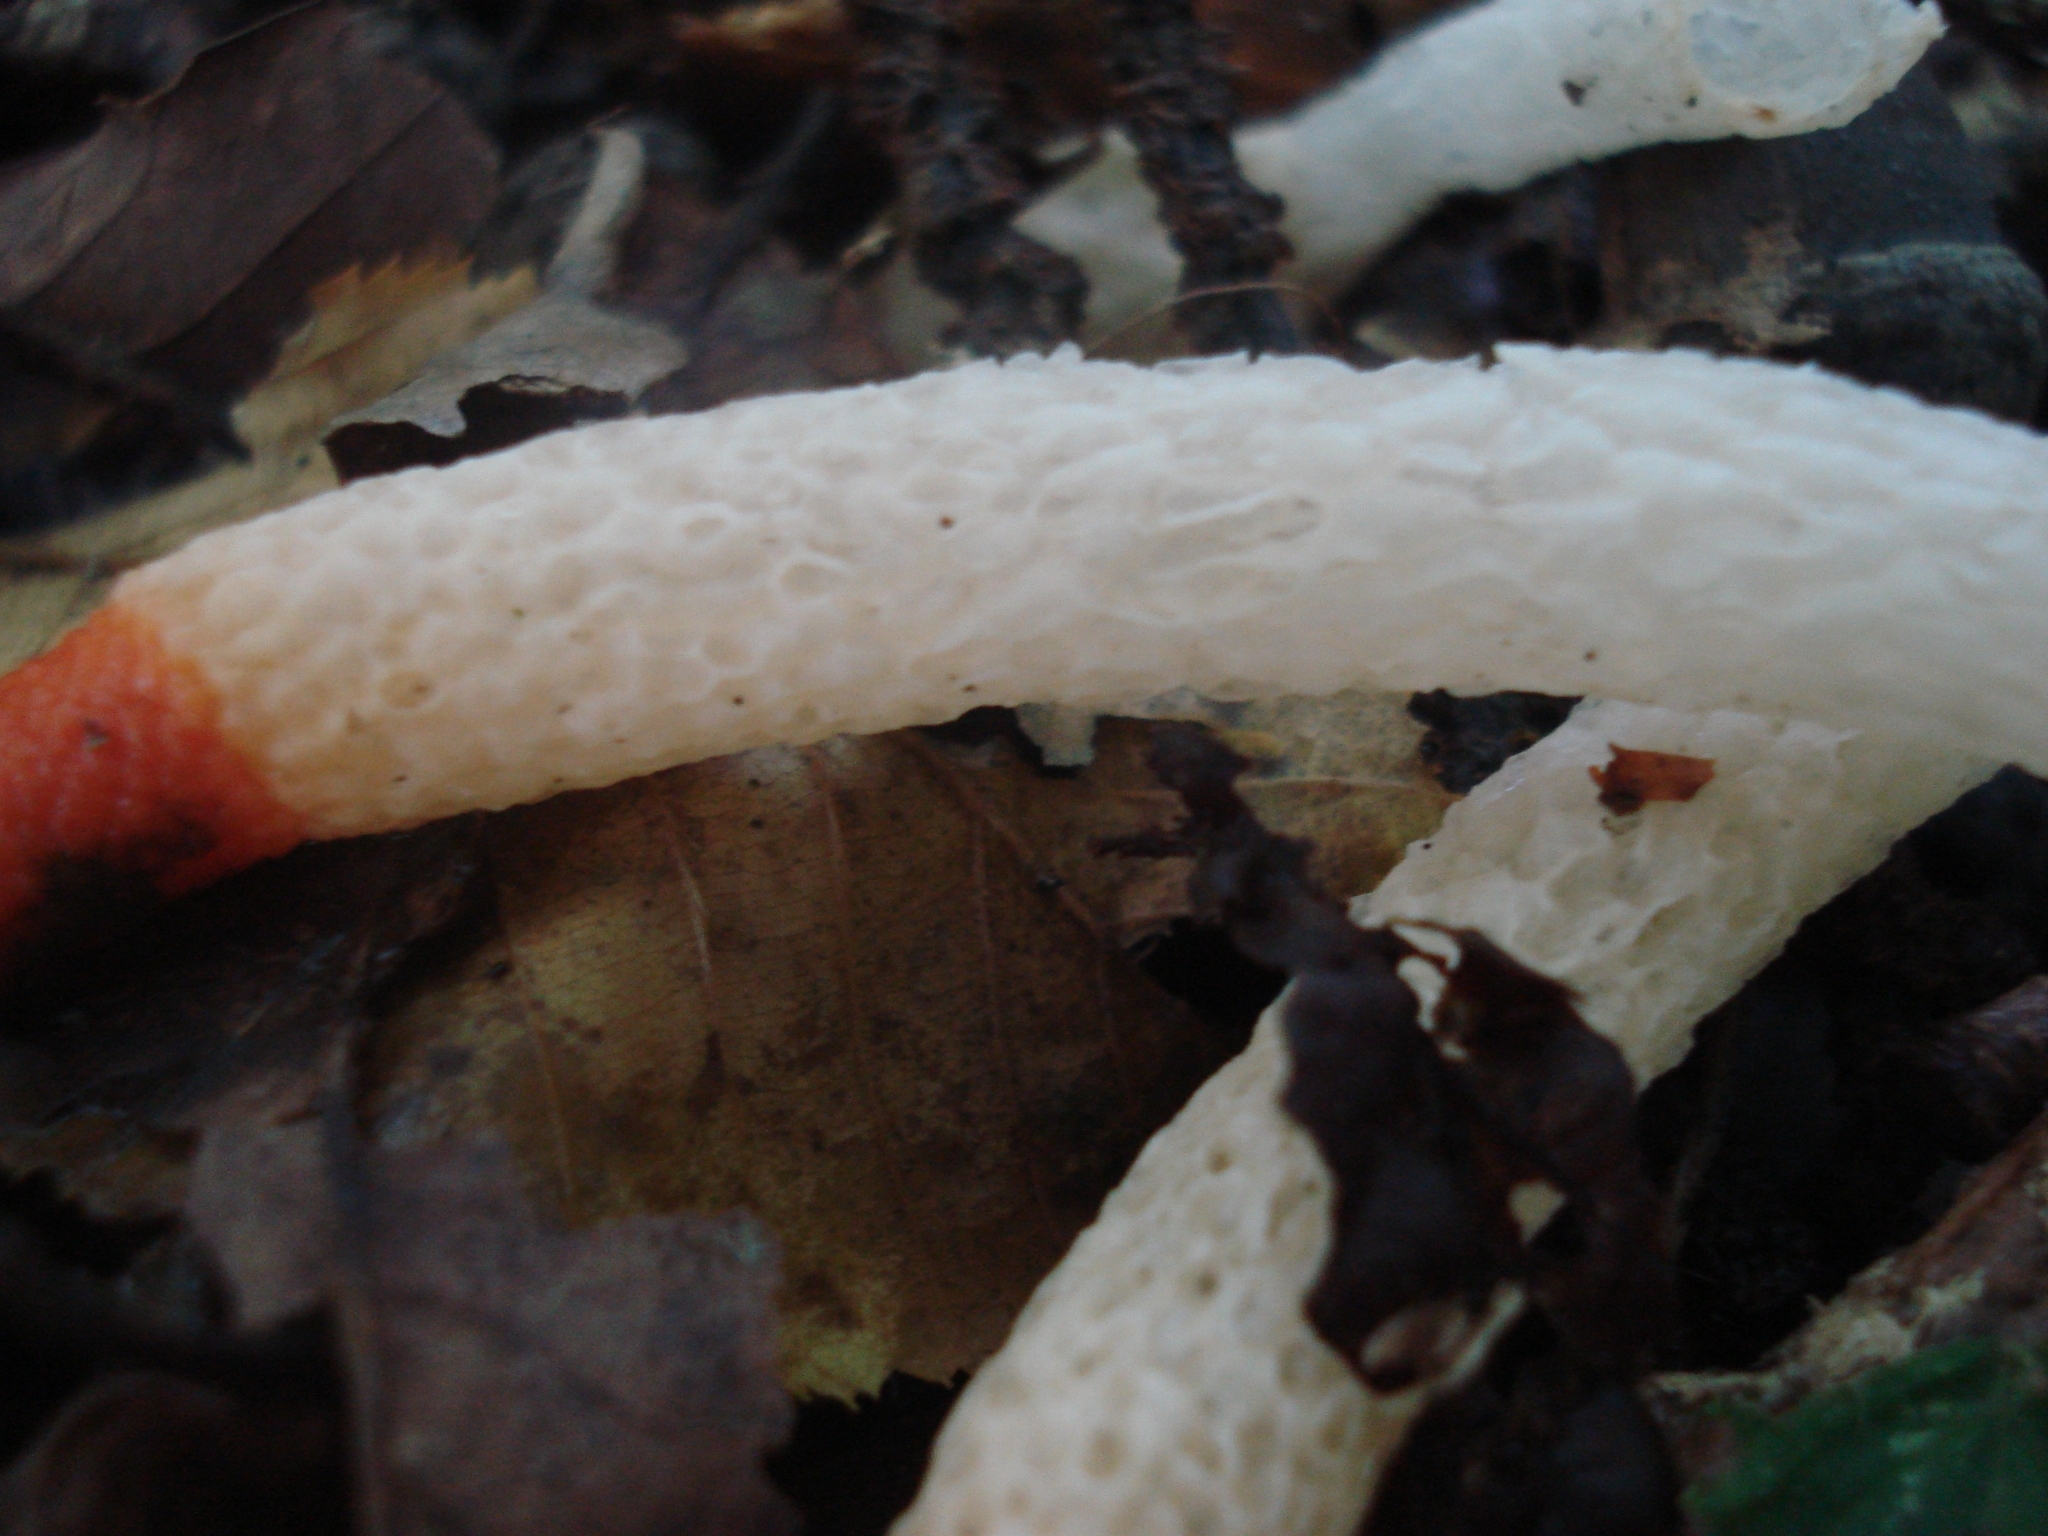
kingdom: Fungi
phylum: Basidiomycota
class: Agaricomycetes
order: Phallales
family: Phallaceae
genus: Mutinus
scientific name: Mutinus caninus
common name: Dog stinkhorn
